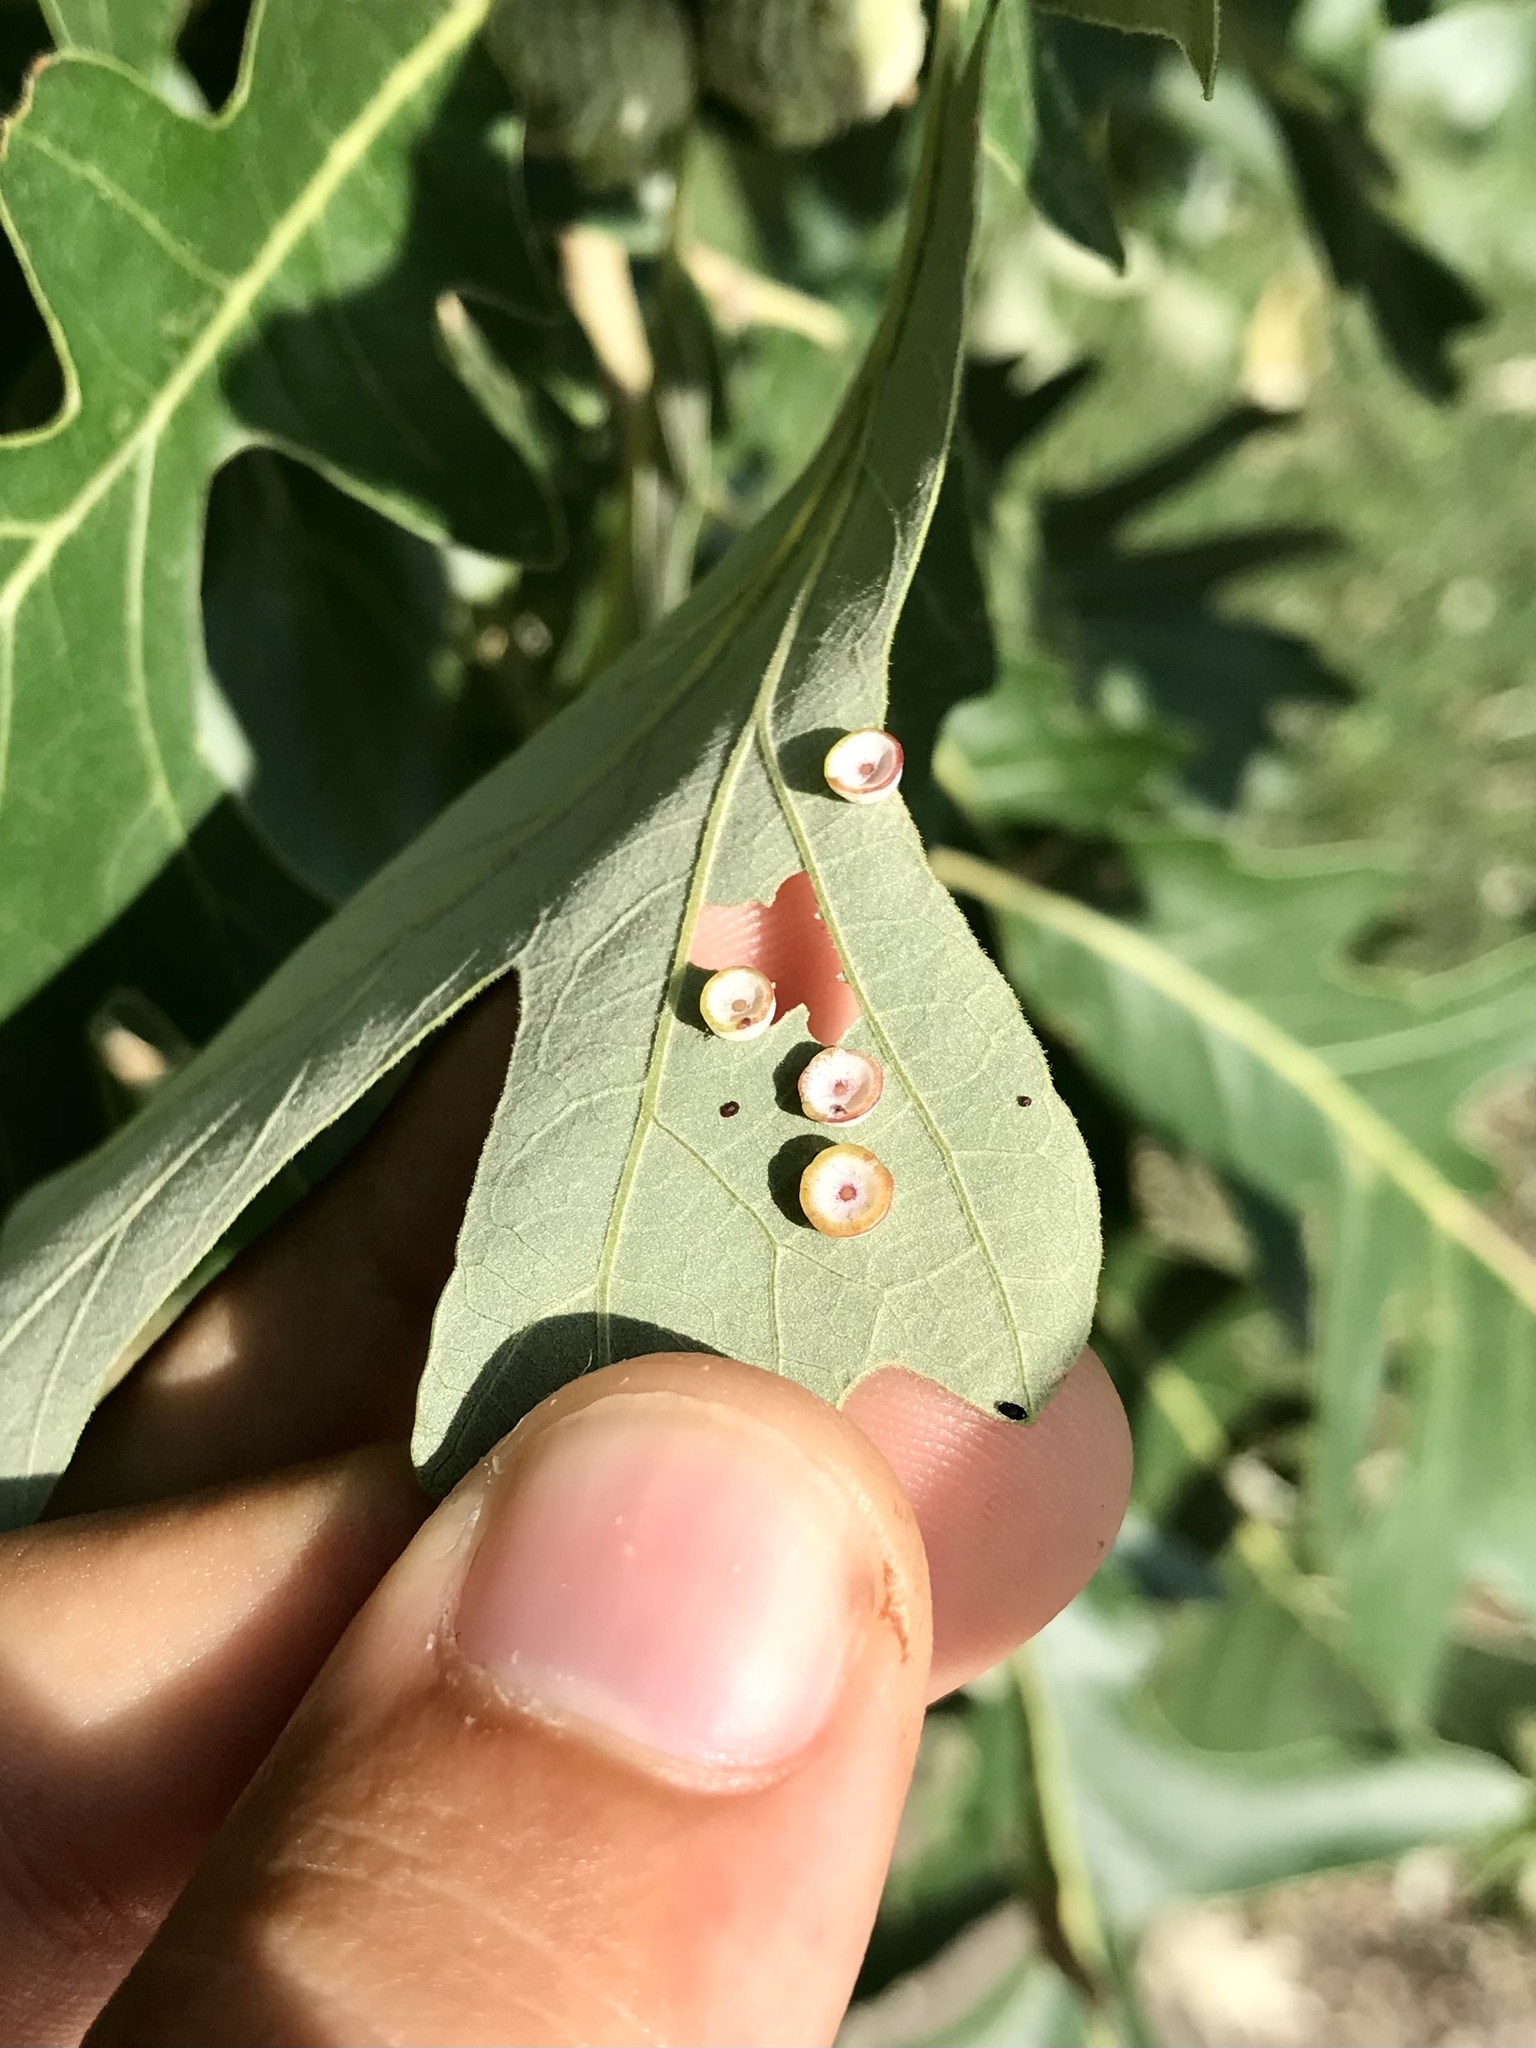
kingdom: Animalia
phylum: Arthropoda
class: Insecta
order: Hymenoptera
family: Cynipidae
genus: Phylloteras
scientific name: Phylloteras
